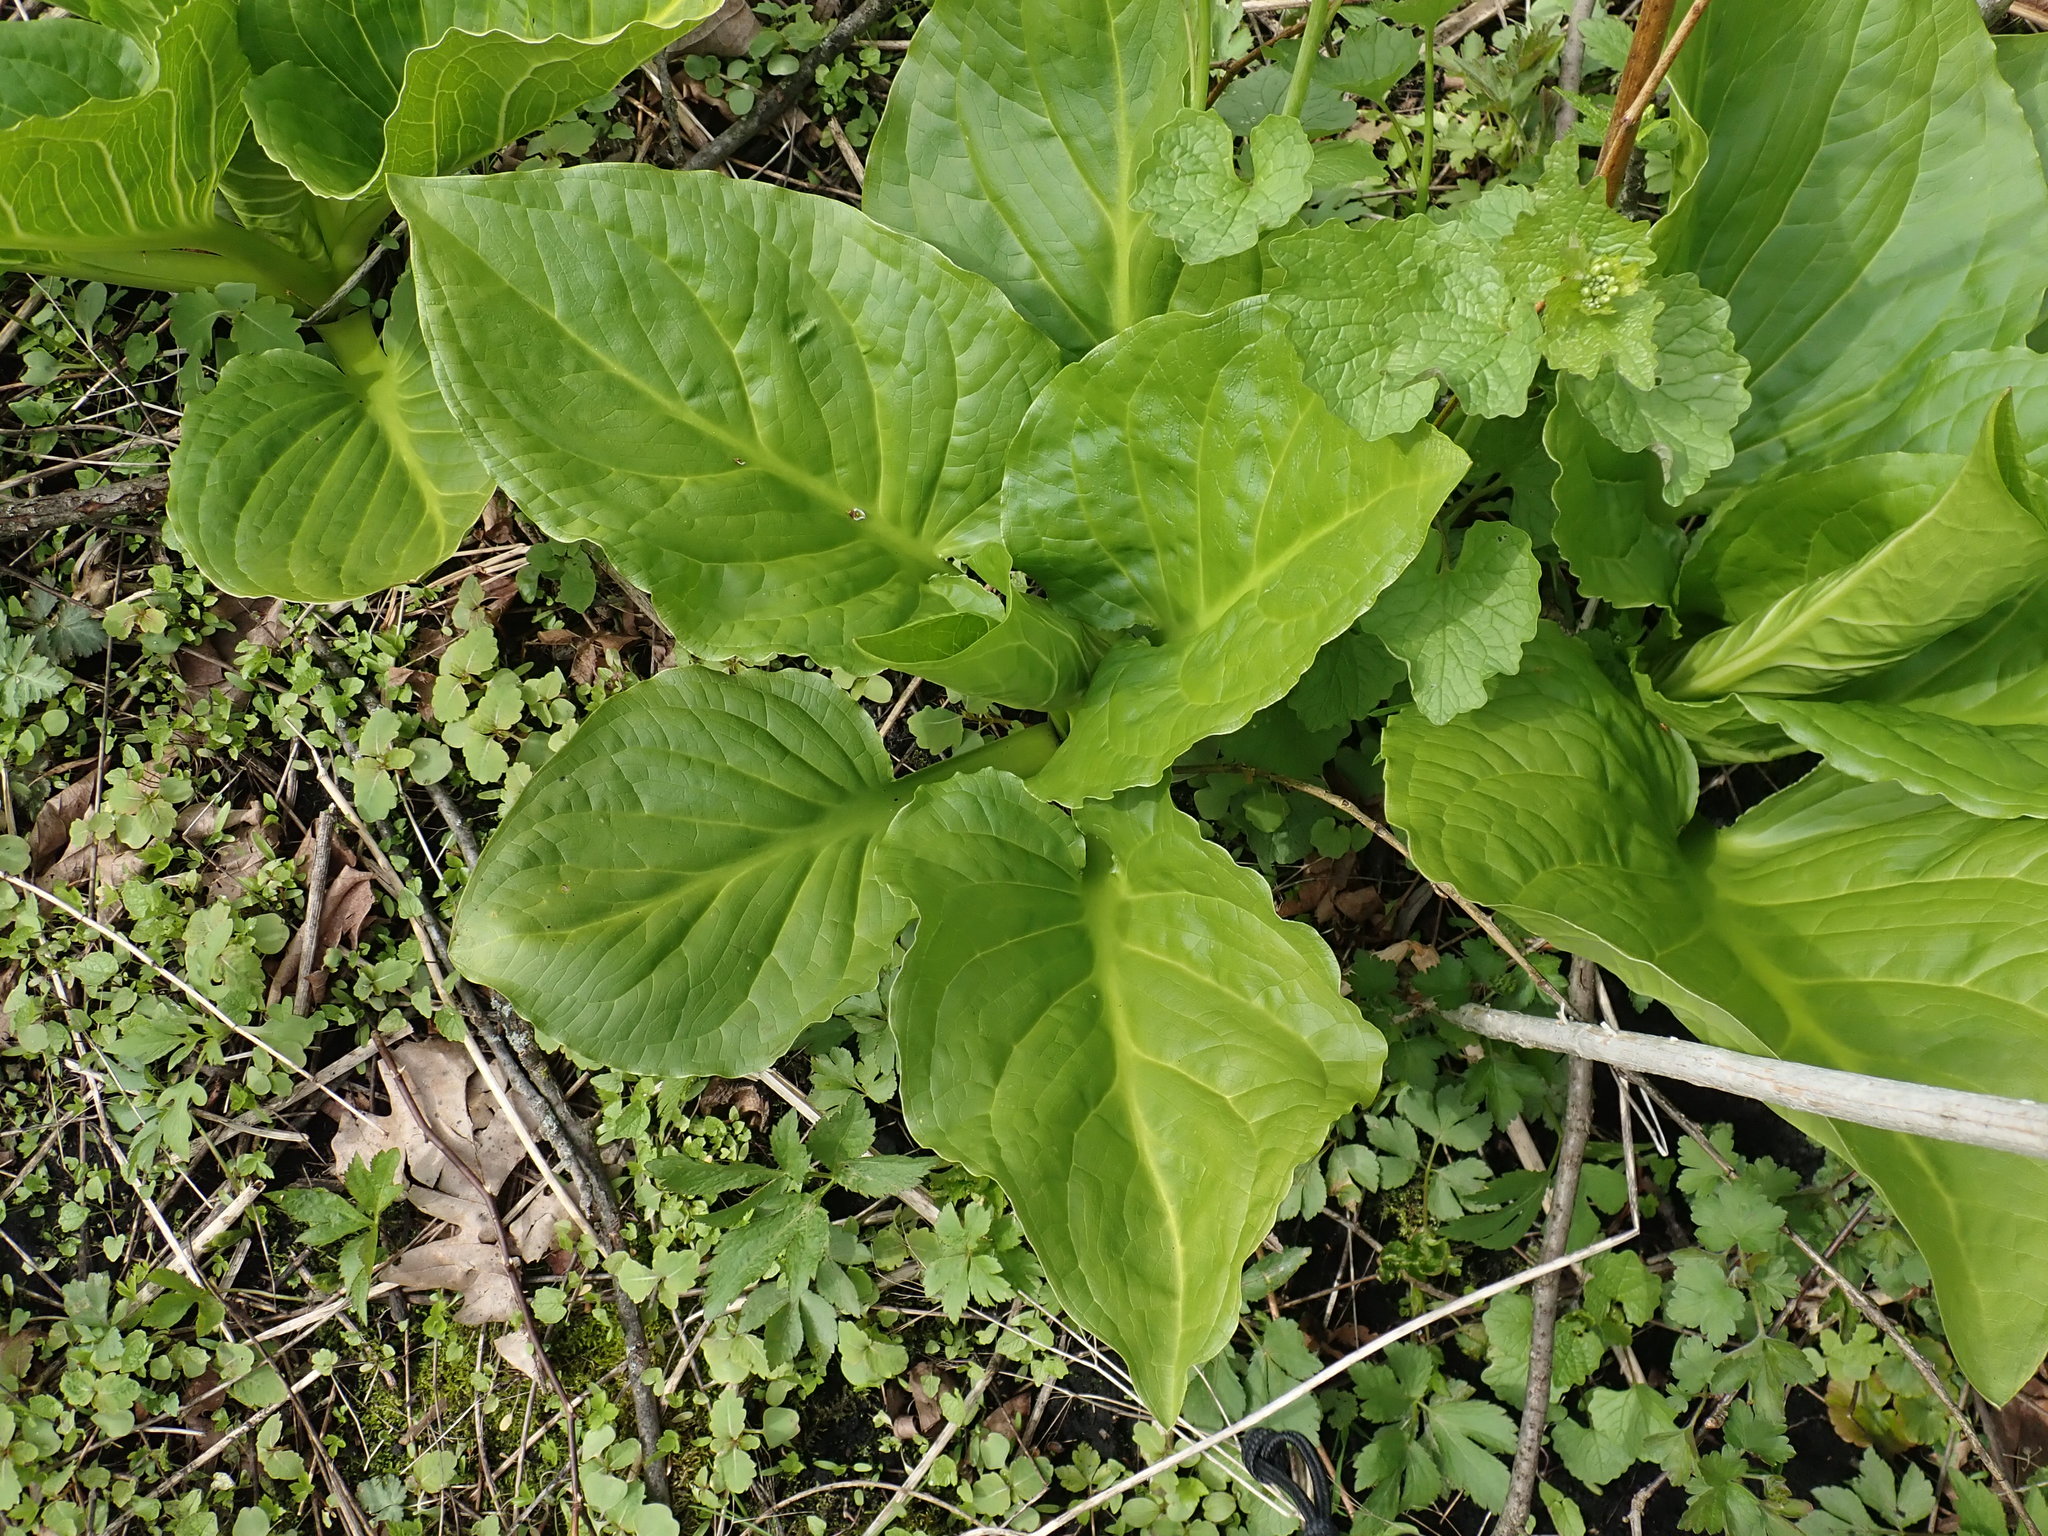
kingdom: Plantae
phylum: Tracheophyta
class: Liliopsida
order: Alismatales
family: Araceae
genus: Symplocarpus
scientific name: Symplocarpus foetidus
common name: Eastern skunk cabbage
